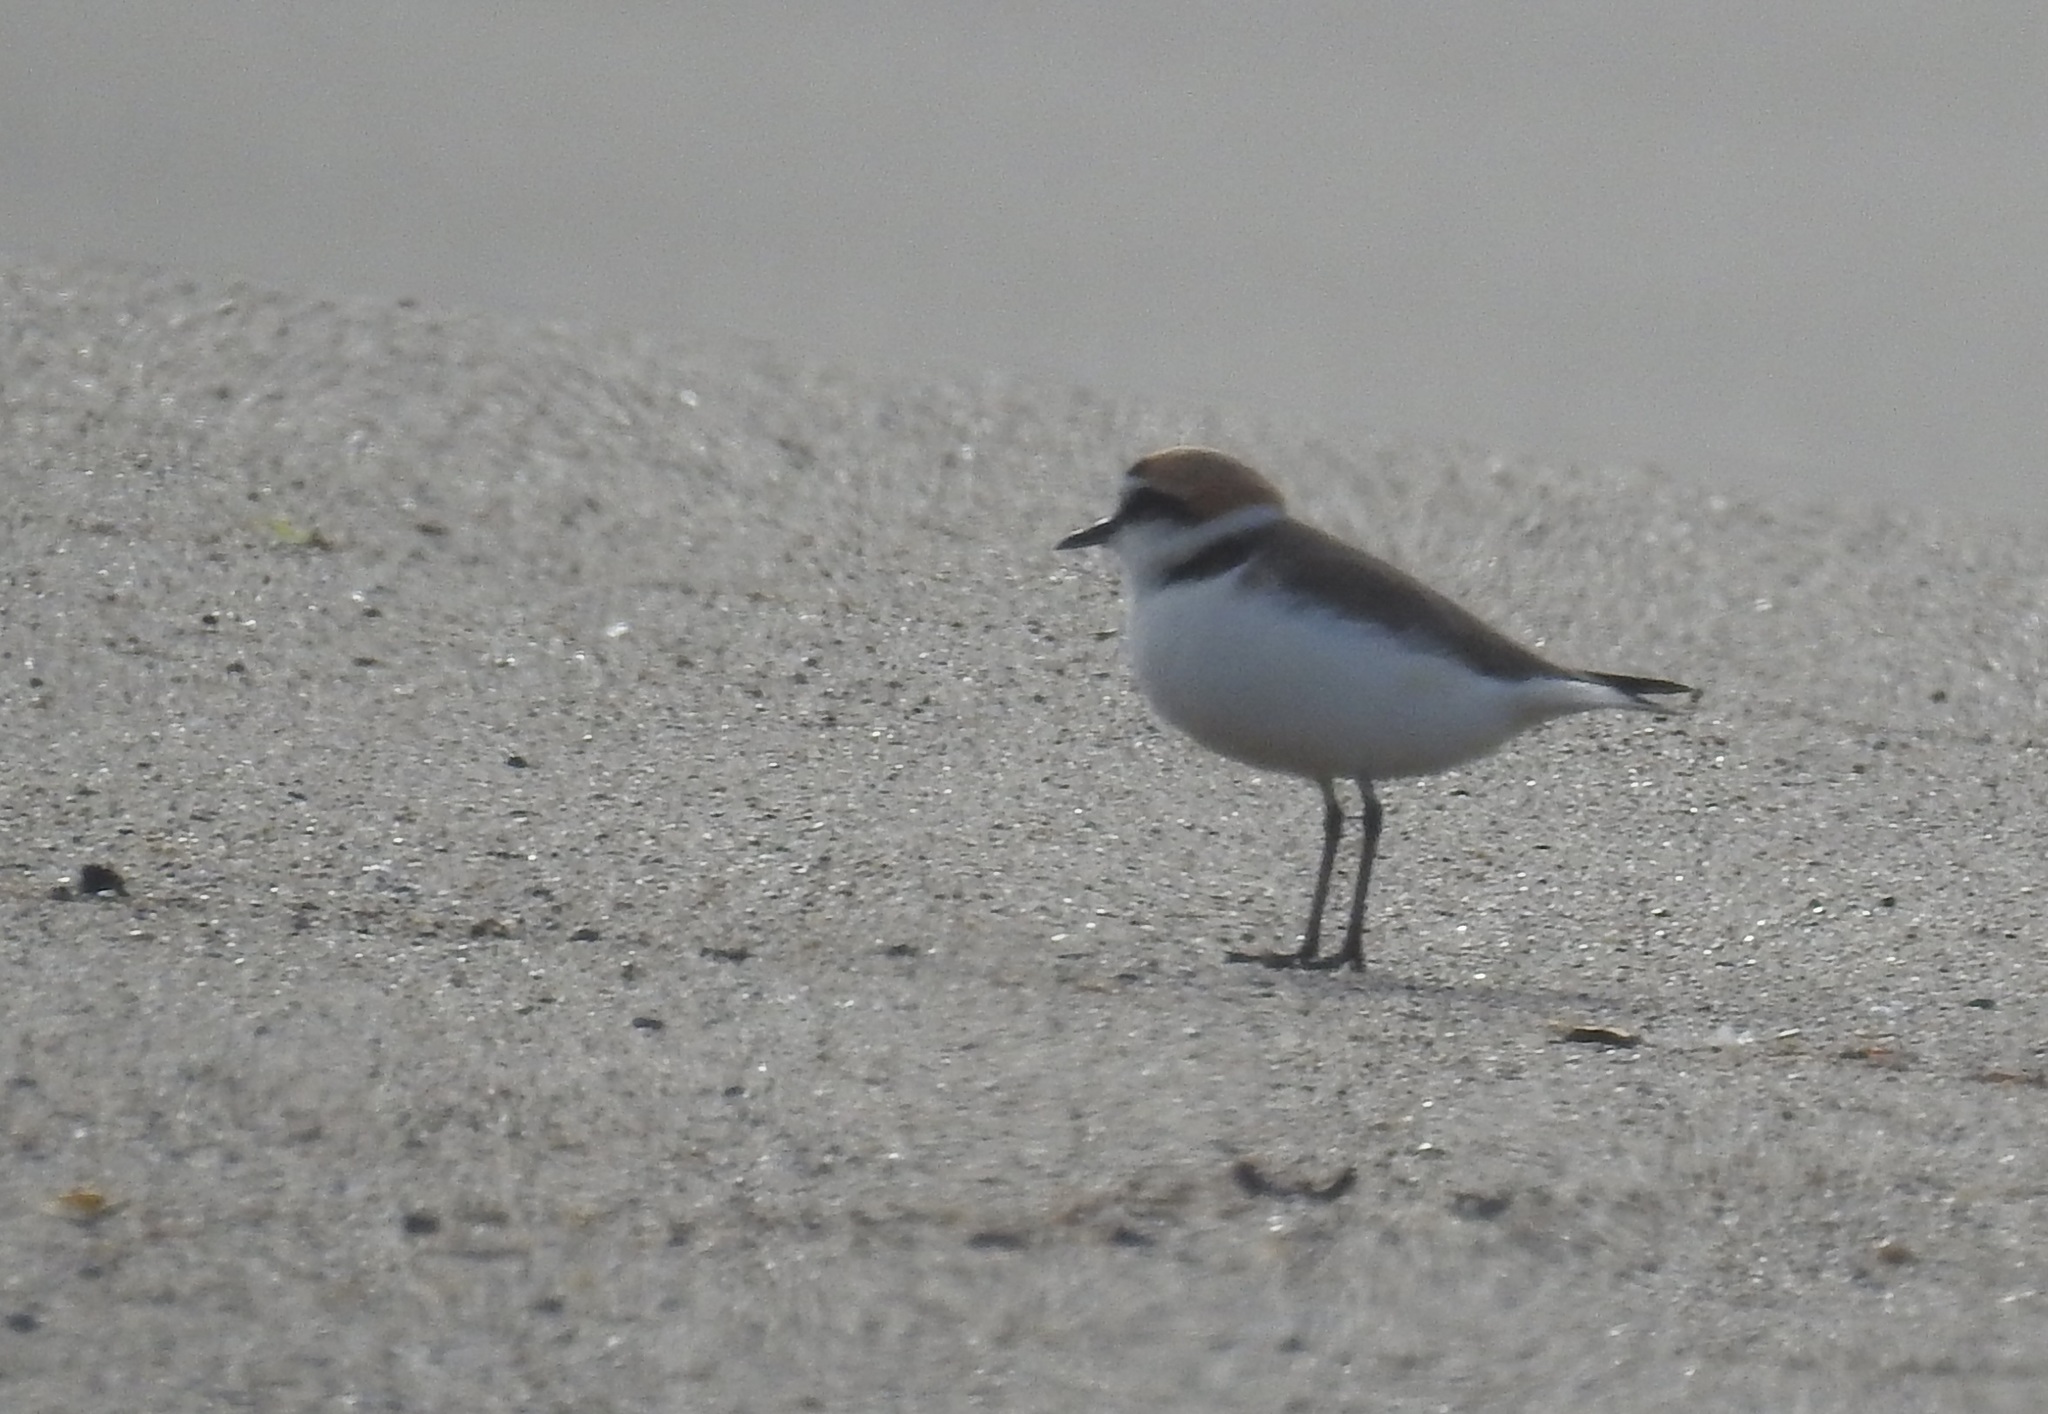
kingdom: Animalia
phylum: Chordata
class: Aves
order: Charadriiformes
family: Charadriidae
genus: Charadrius
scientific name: Charadrius alexandrinus
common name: Kentish plover
